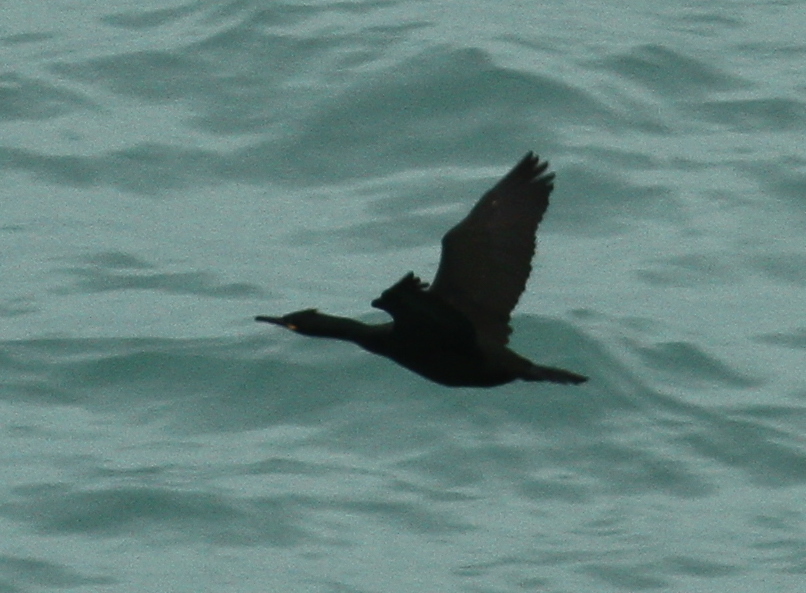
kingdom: Animalia
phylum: Chordata
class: Aves
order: Suliformes
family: Phalacrocoracidae
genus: Phalacrocorax
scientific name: Phalacrocorax aristotelis
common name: European shag
